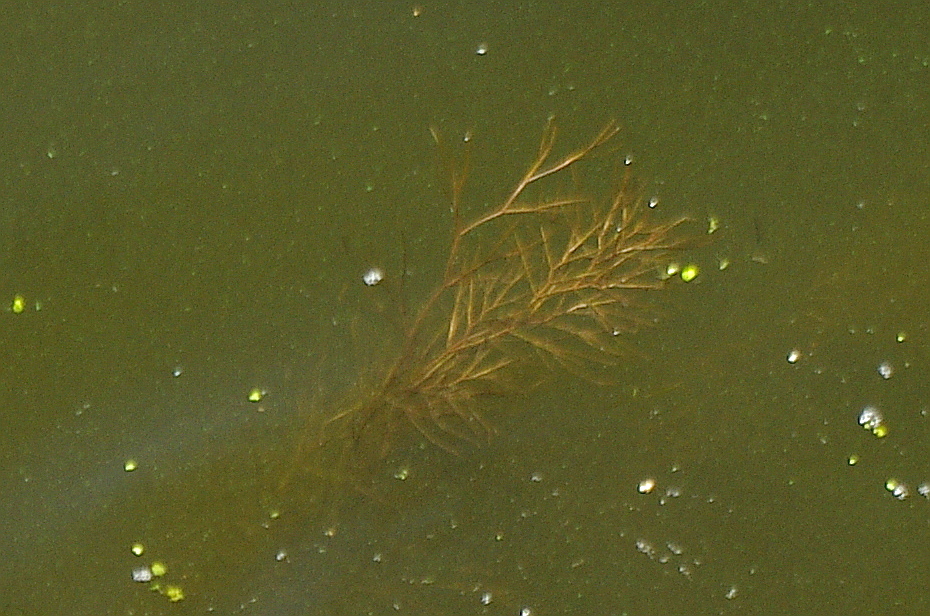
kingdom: Plantae
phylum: Tracheophyta
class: Liliopsida
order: Alismatales
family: Potamogetonaceae
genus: Stuckenia
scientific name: Stuckenia pectinata
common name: Sago pondweed
